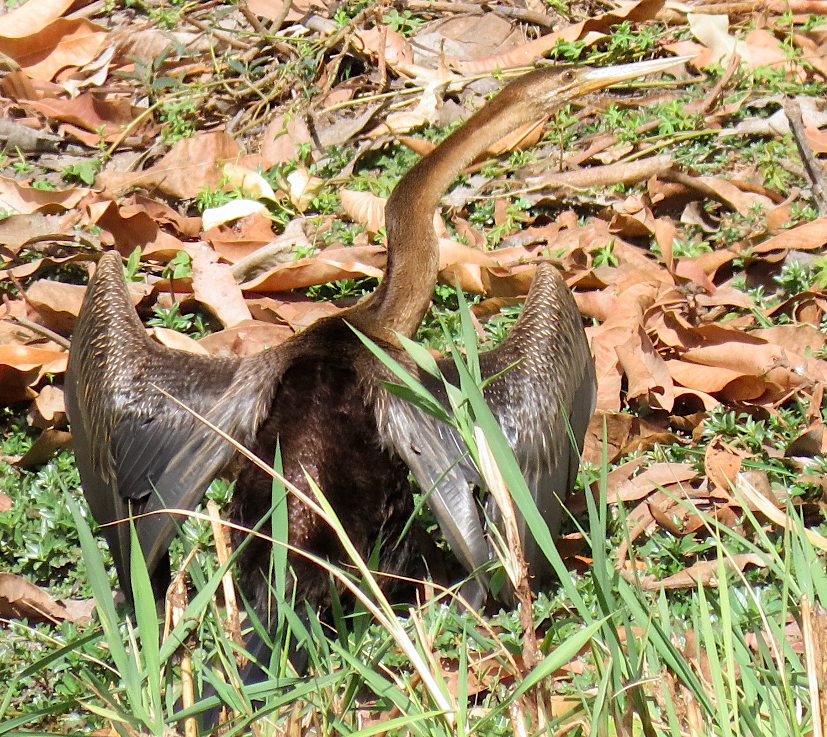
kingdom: Animalia
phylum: Chordata
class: Aves
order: Suliformes
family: Anhingidae
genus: Anhinga
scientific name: Anhinga rufa
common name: African darter
